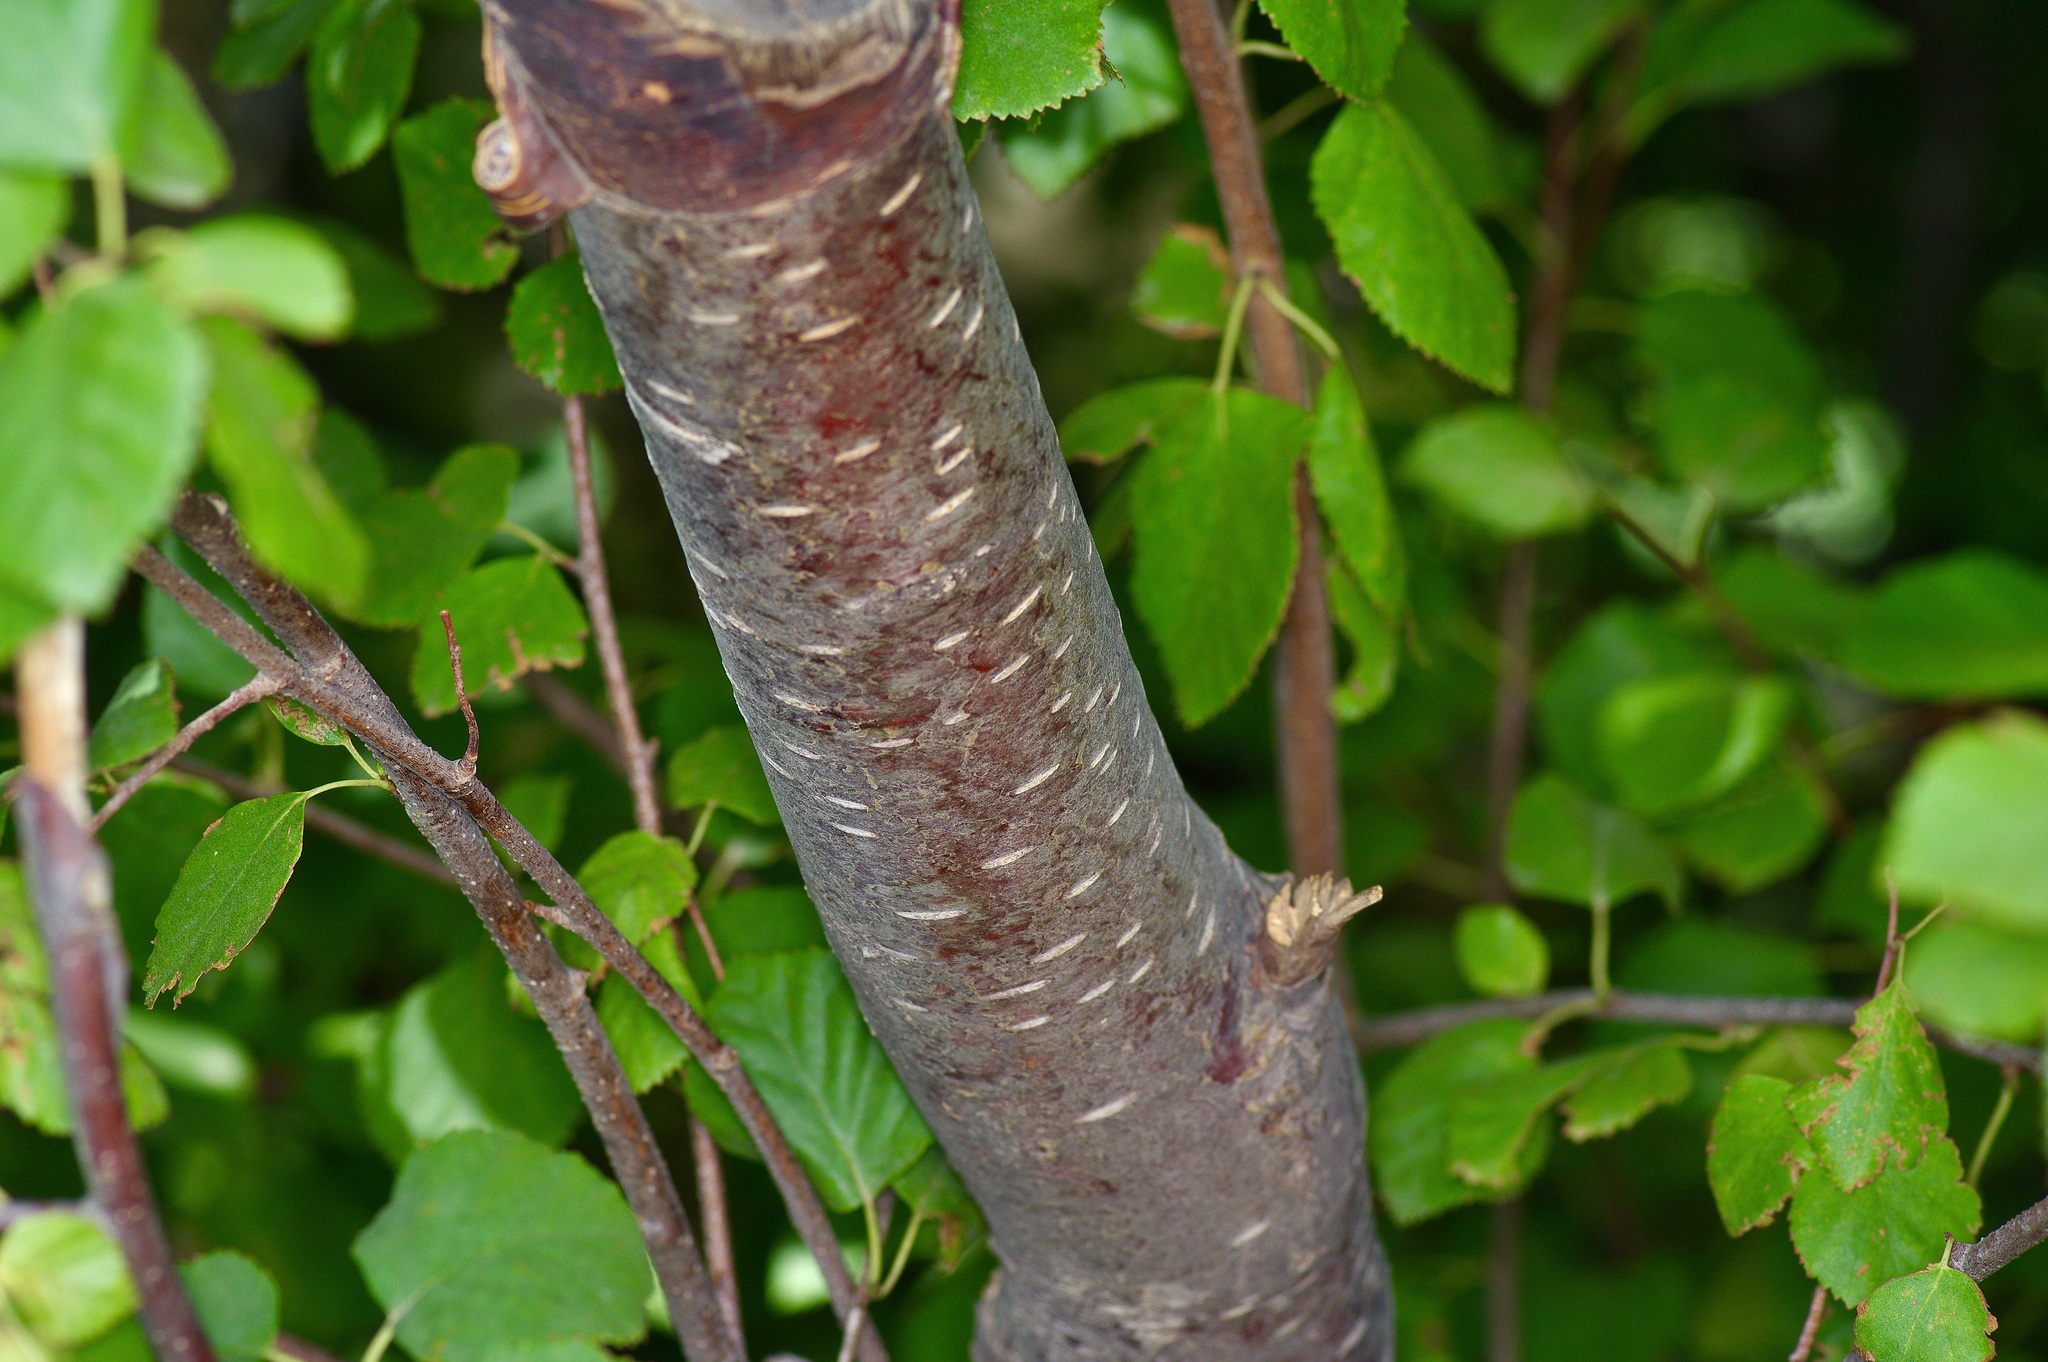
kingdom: Plantae
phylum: Tracheophyta
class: Magnoliopsida
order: Fagales
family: Betulaceae
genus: Betula
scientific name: Betula occidentalis
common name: River birch
